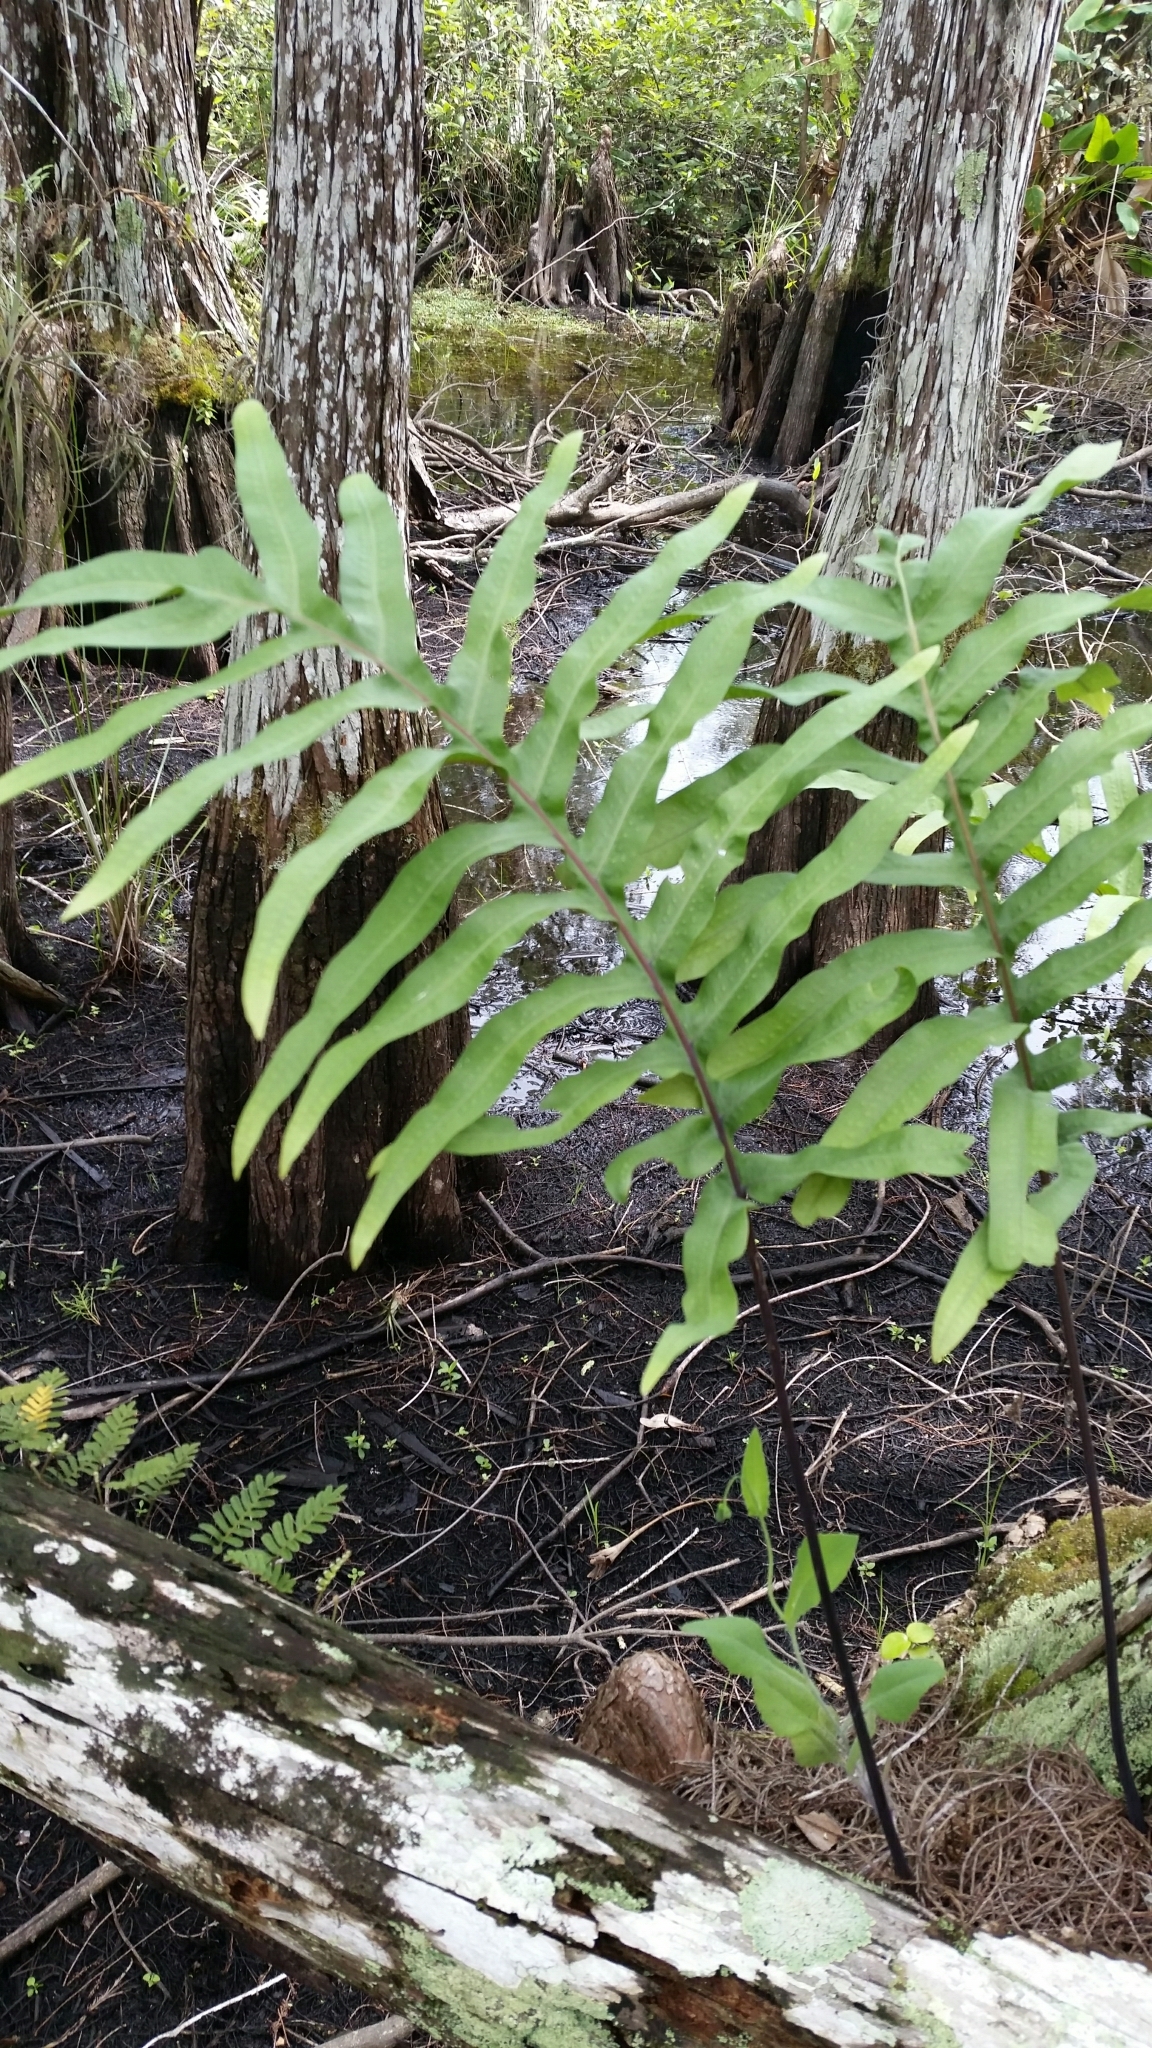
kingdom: Plantae
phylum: Tracheophyta
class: Polypodiopsida
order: Polypodiales
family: Polypodiaceae
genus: Phlebodium
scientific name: Phlebodium aureum
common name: Gold-foot fern
